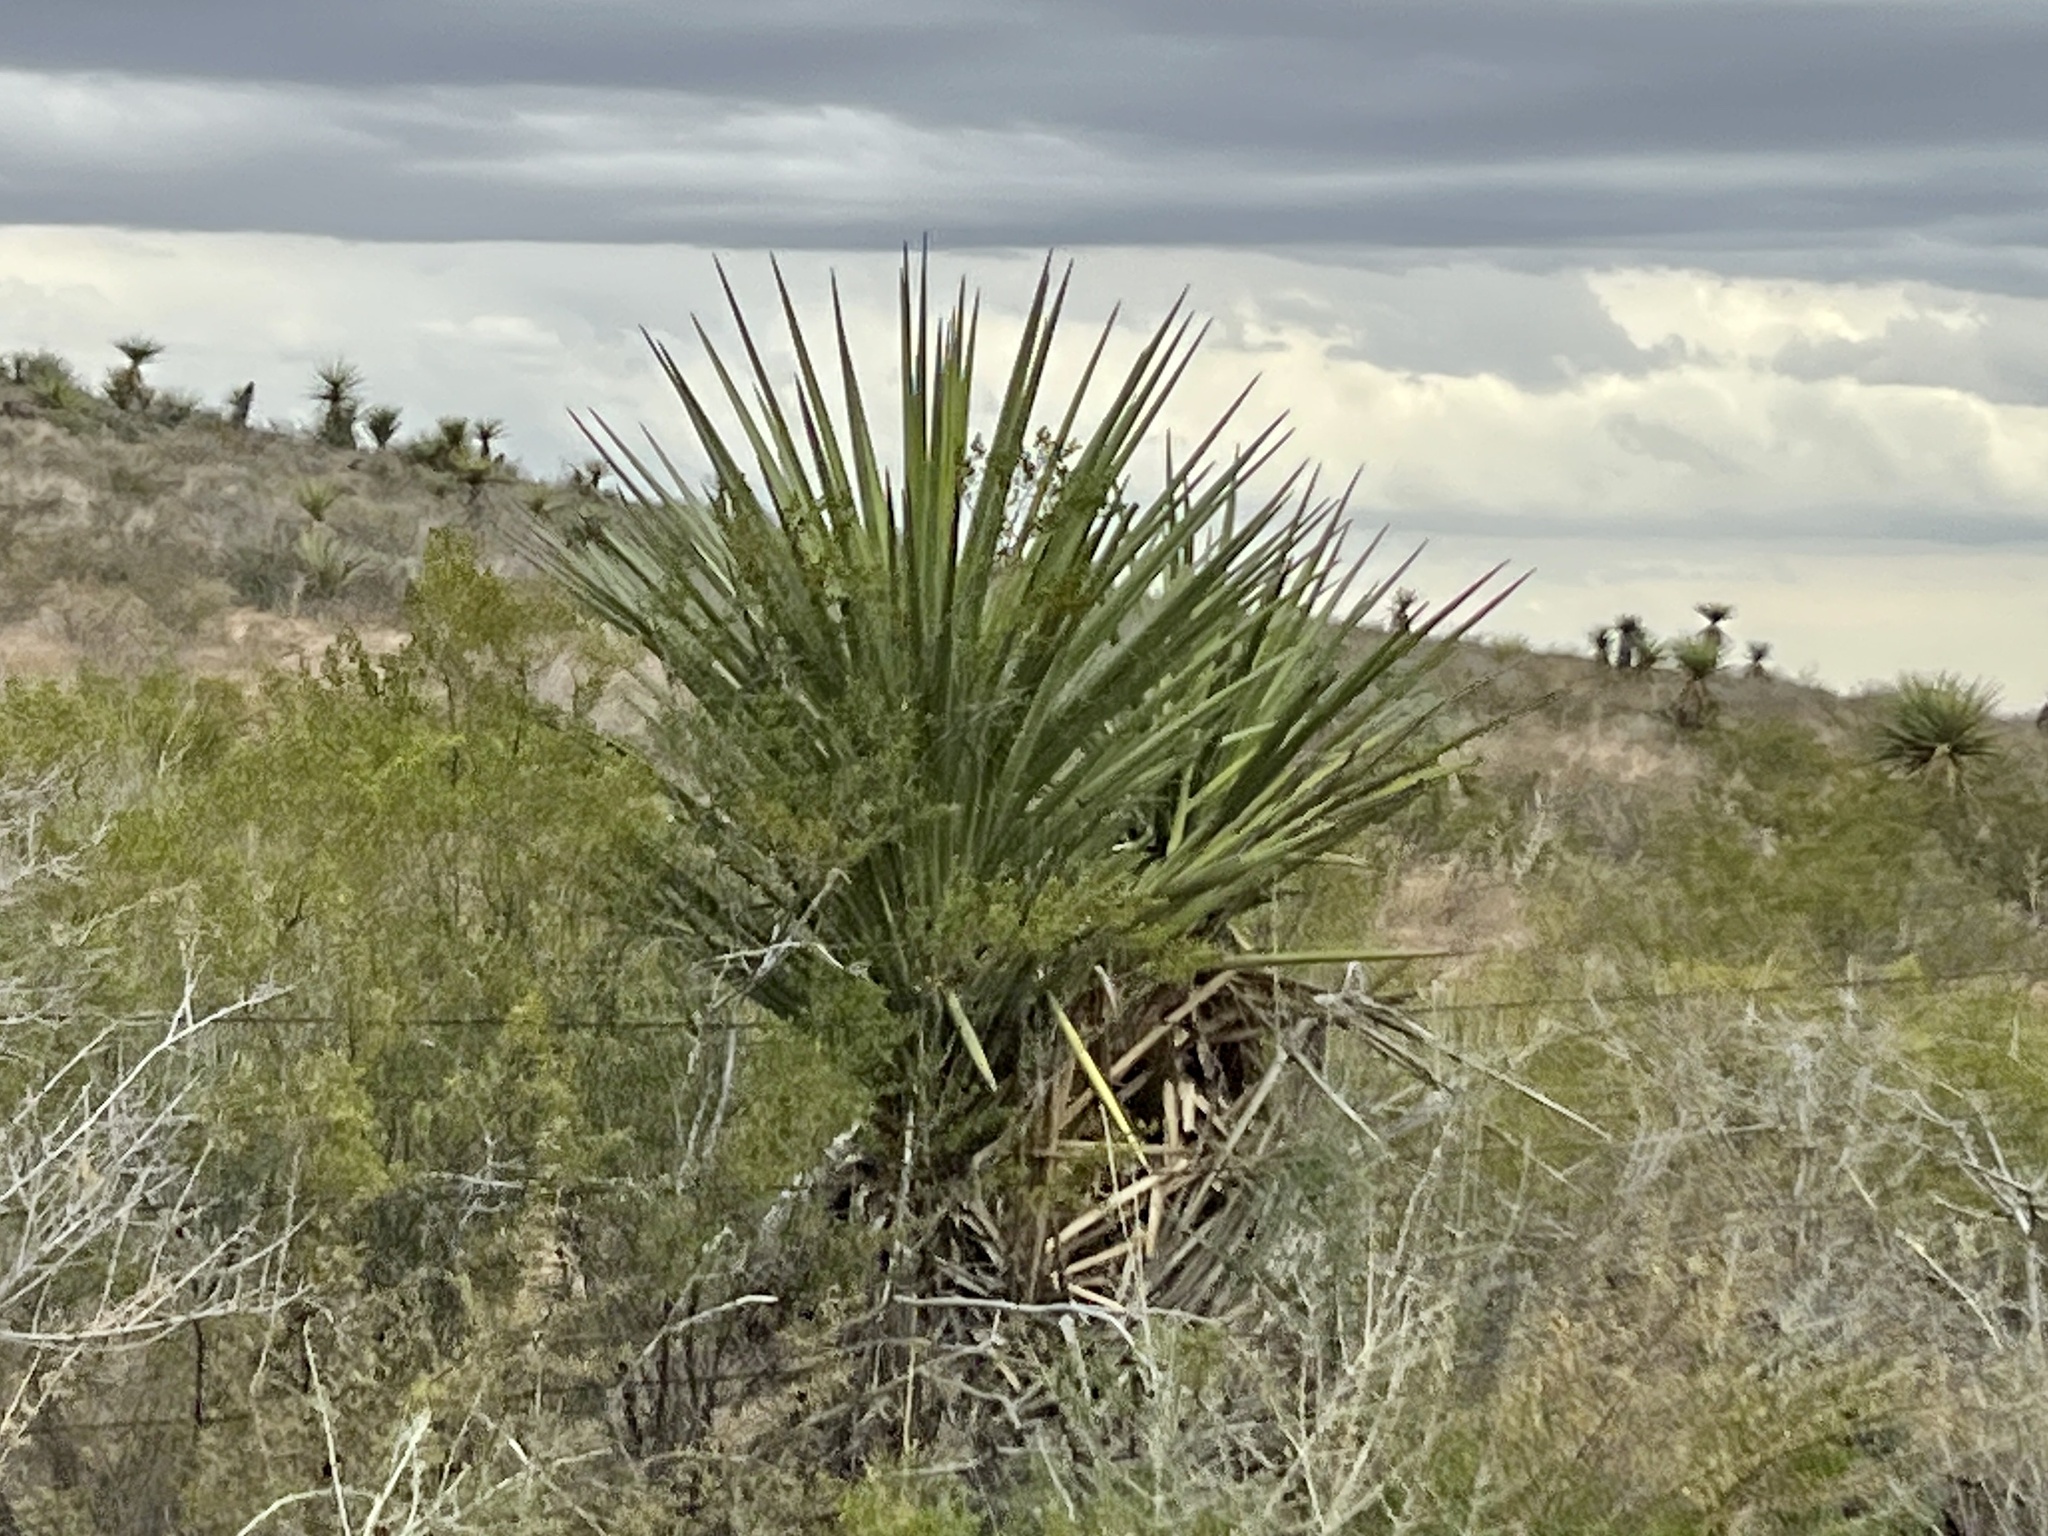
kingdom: Plantae
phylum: Tracheophyta
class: Liliopsida
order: Asparagales
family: Asparagaceae
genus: Yucca
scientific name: Yucca treculiana
